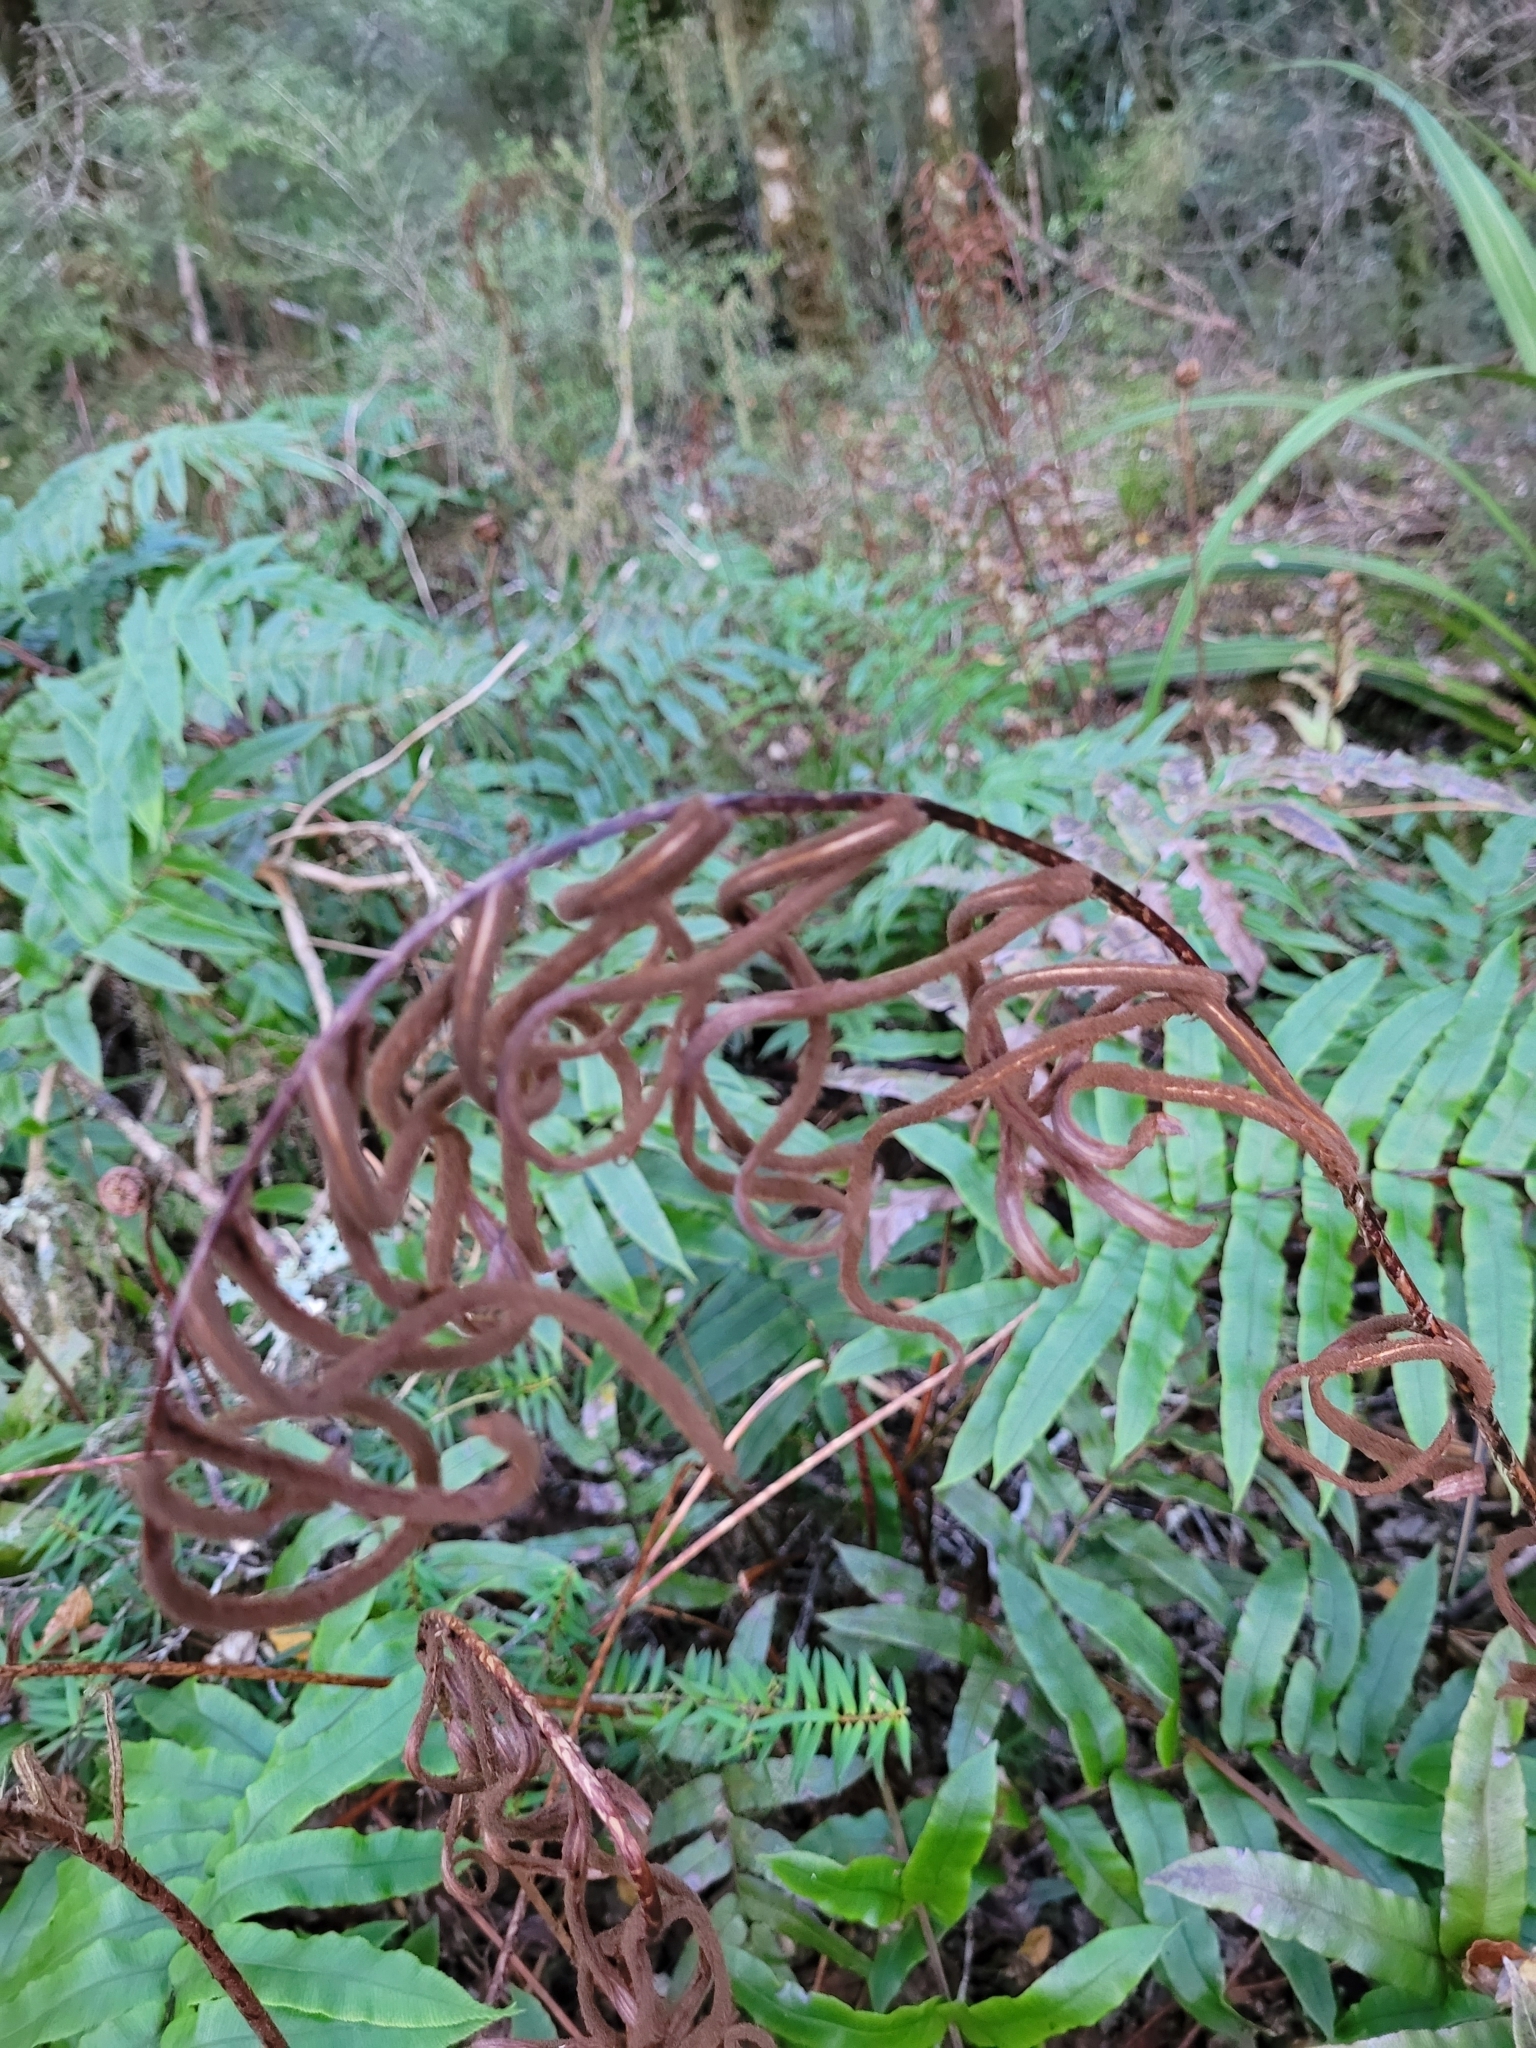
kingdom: Plantae
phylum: Tracheophyta
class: Polypodiopsida
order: Polypodiales
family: Blechnaceae
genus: Parablechnum
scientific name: Parablechnum procerum
